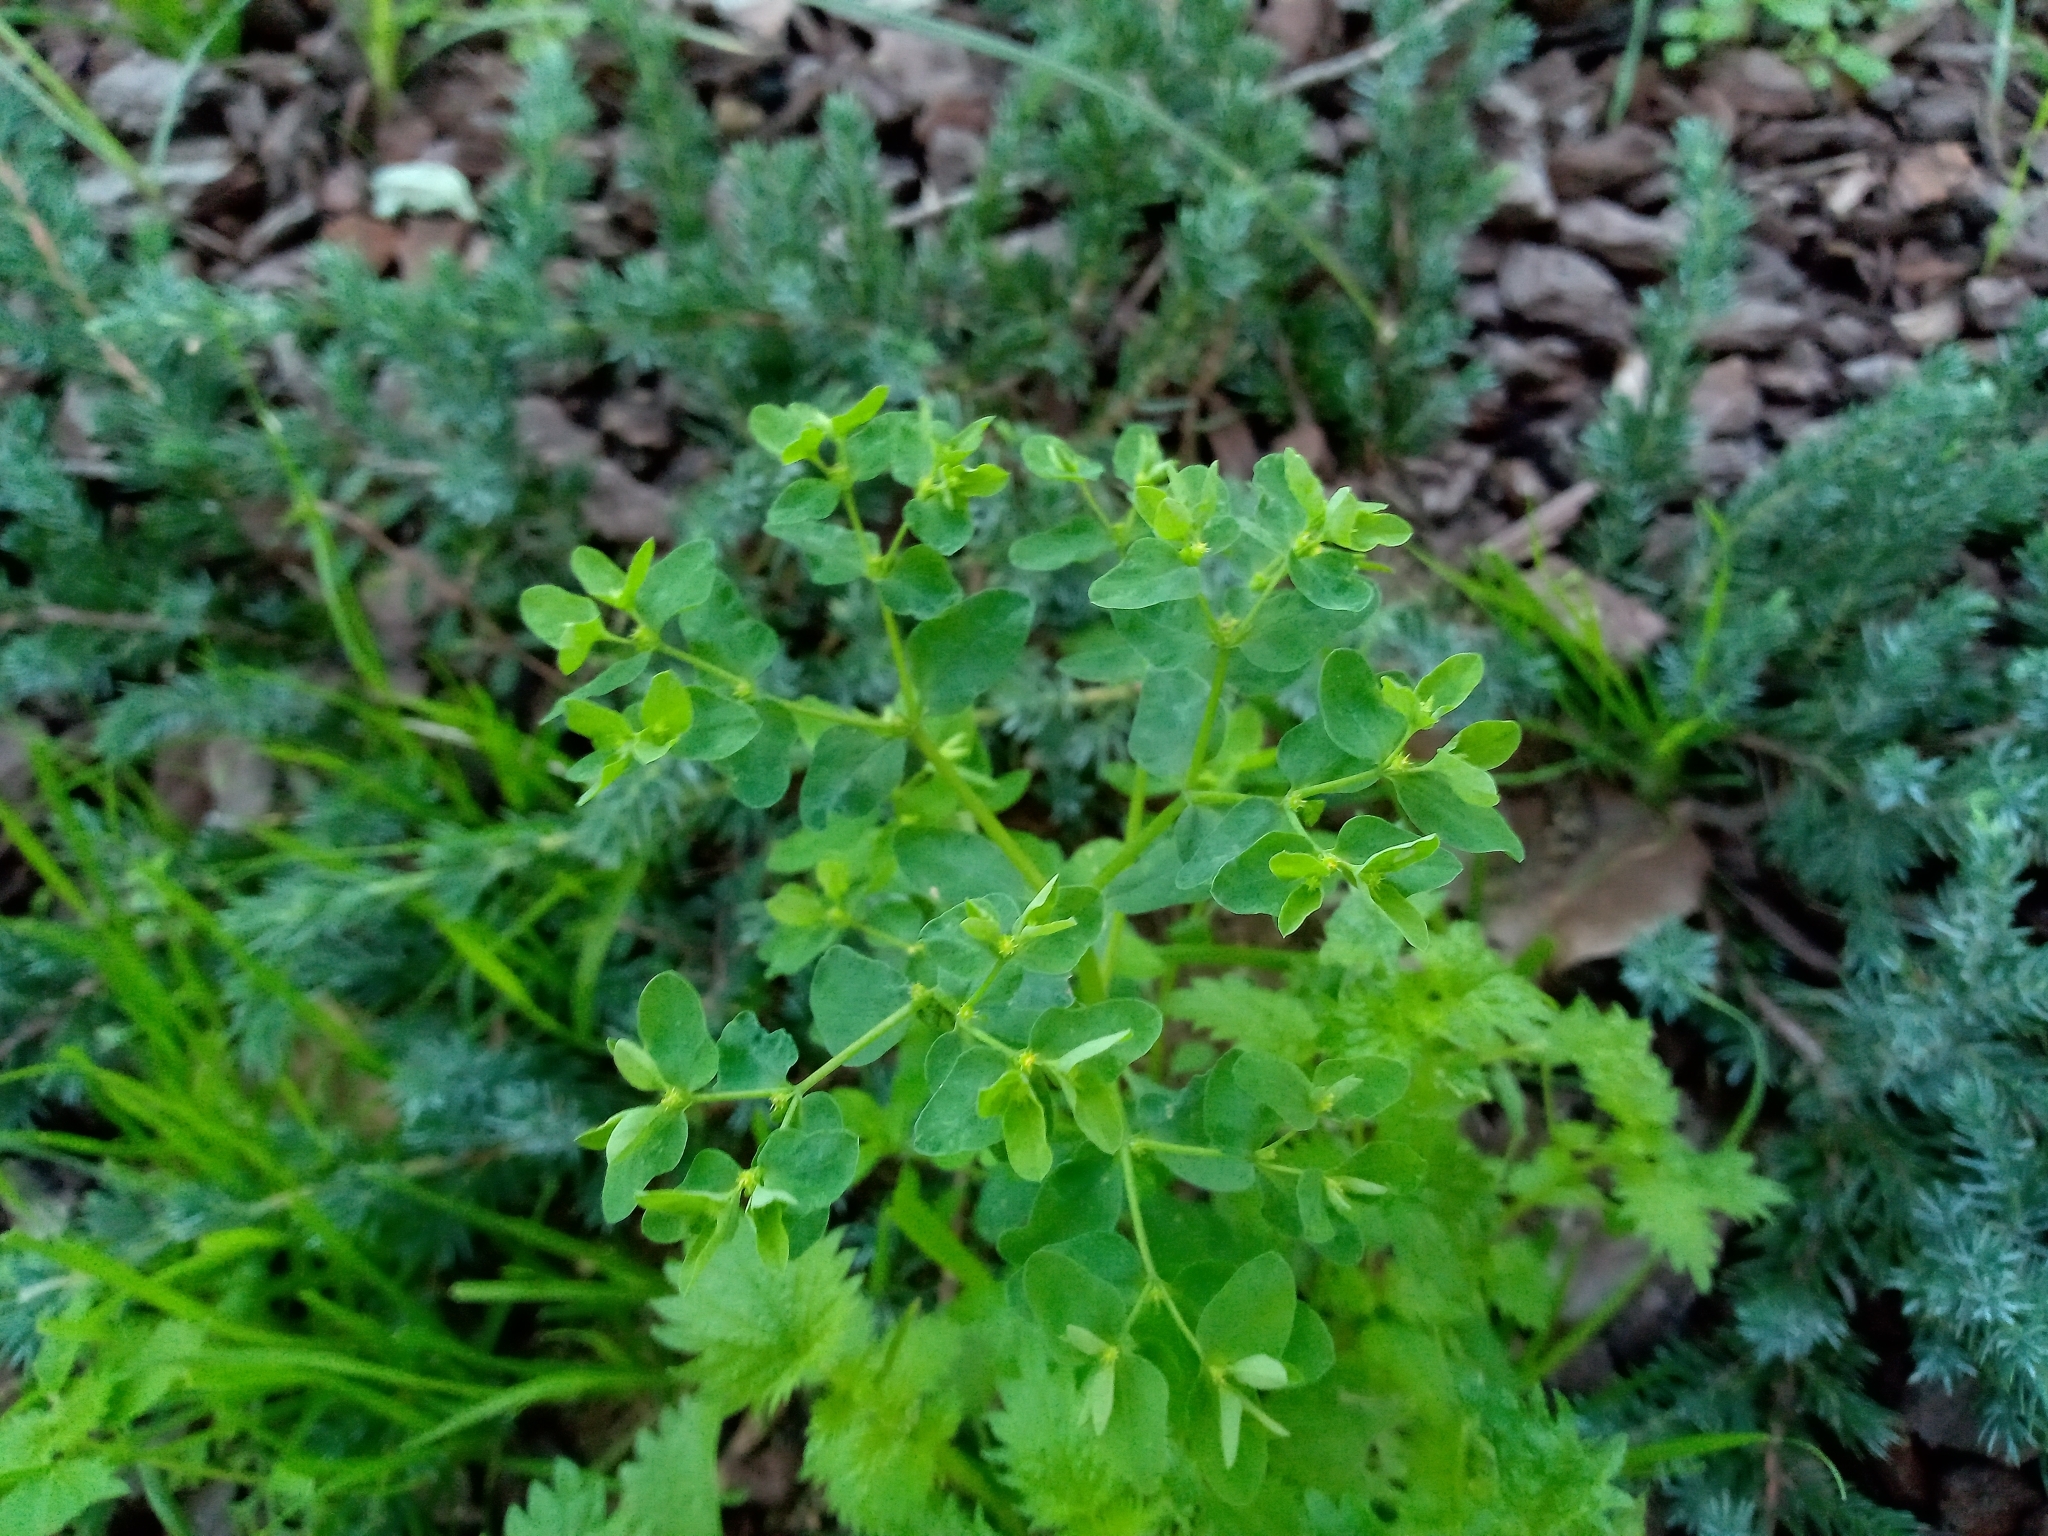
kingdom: Plantae
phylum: Tracheophyta
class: Magnoliopsida
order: Malpighiales
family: Euphorbiaceae
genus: Euphorbia
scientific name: Euphorbia peplus
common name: Petty spurge
